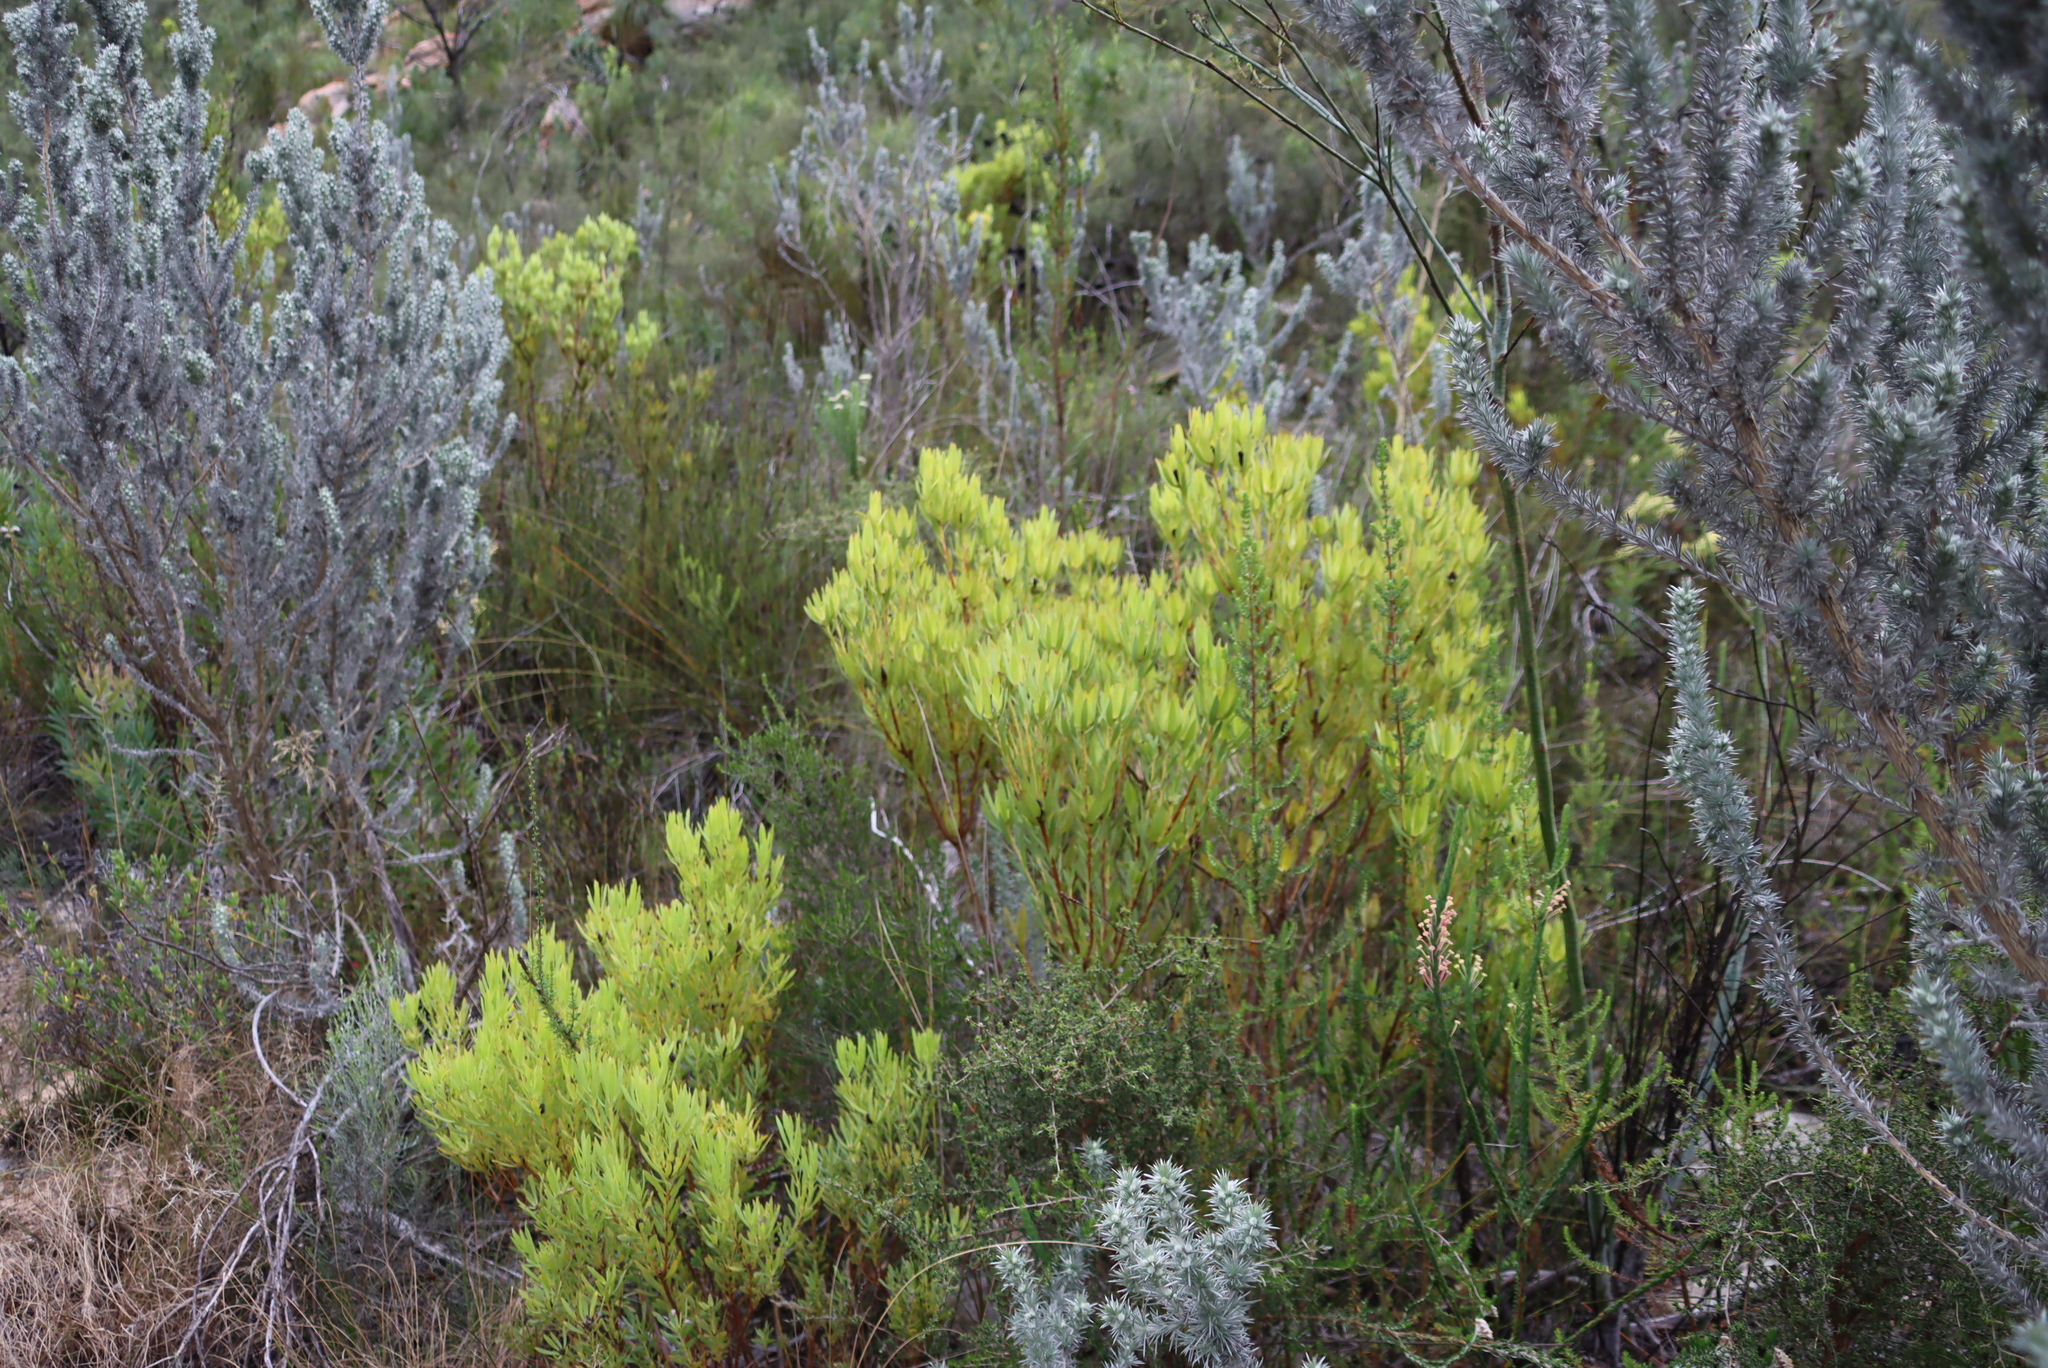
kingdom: Plantae
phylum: Tracheophyta
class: Magnoliopsida
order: Proteales
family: Proteaceae
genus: Leucadendron
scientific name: Leucadendron salignum
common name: Common sunshine conebush
